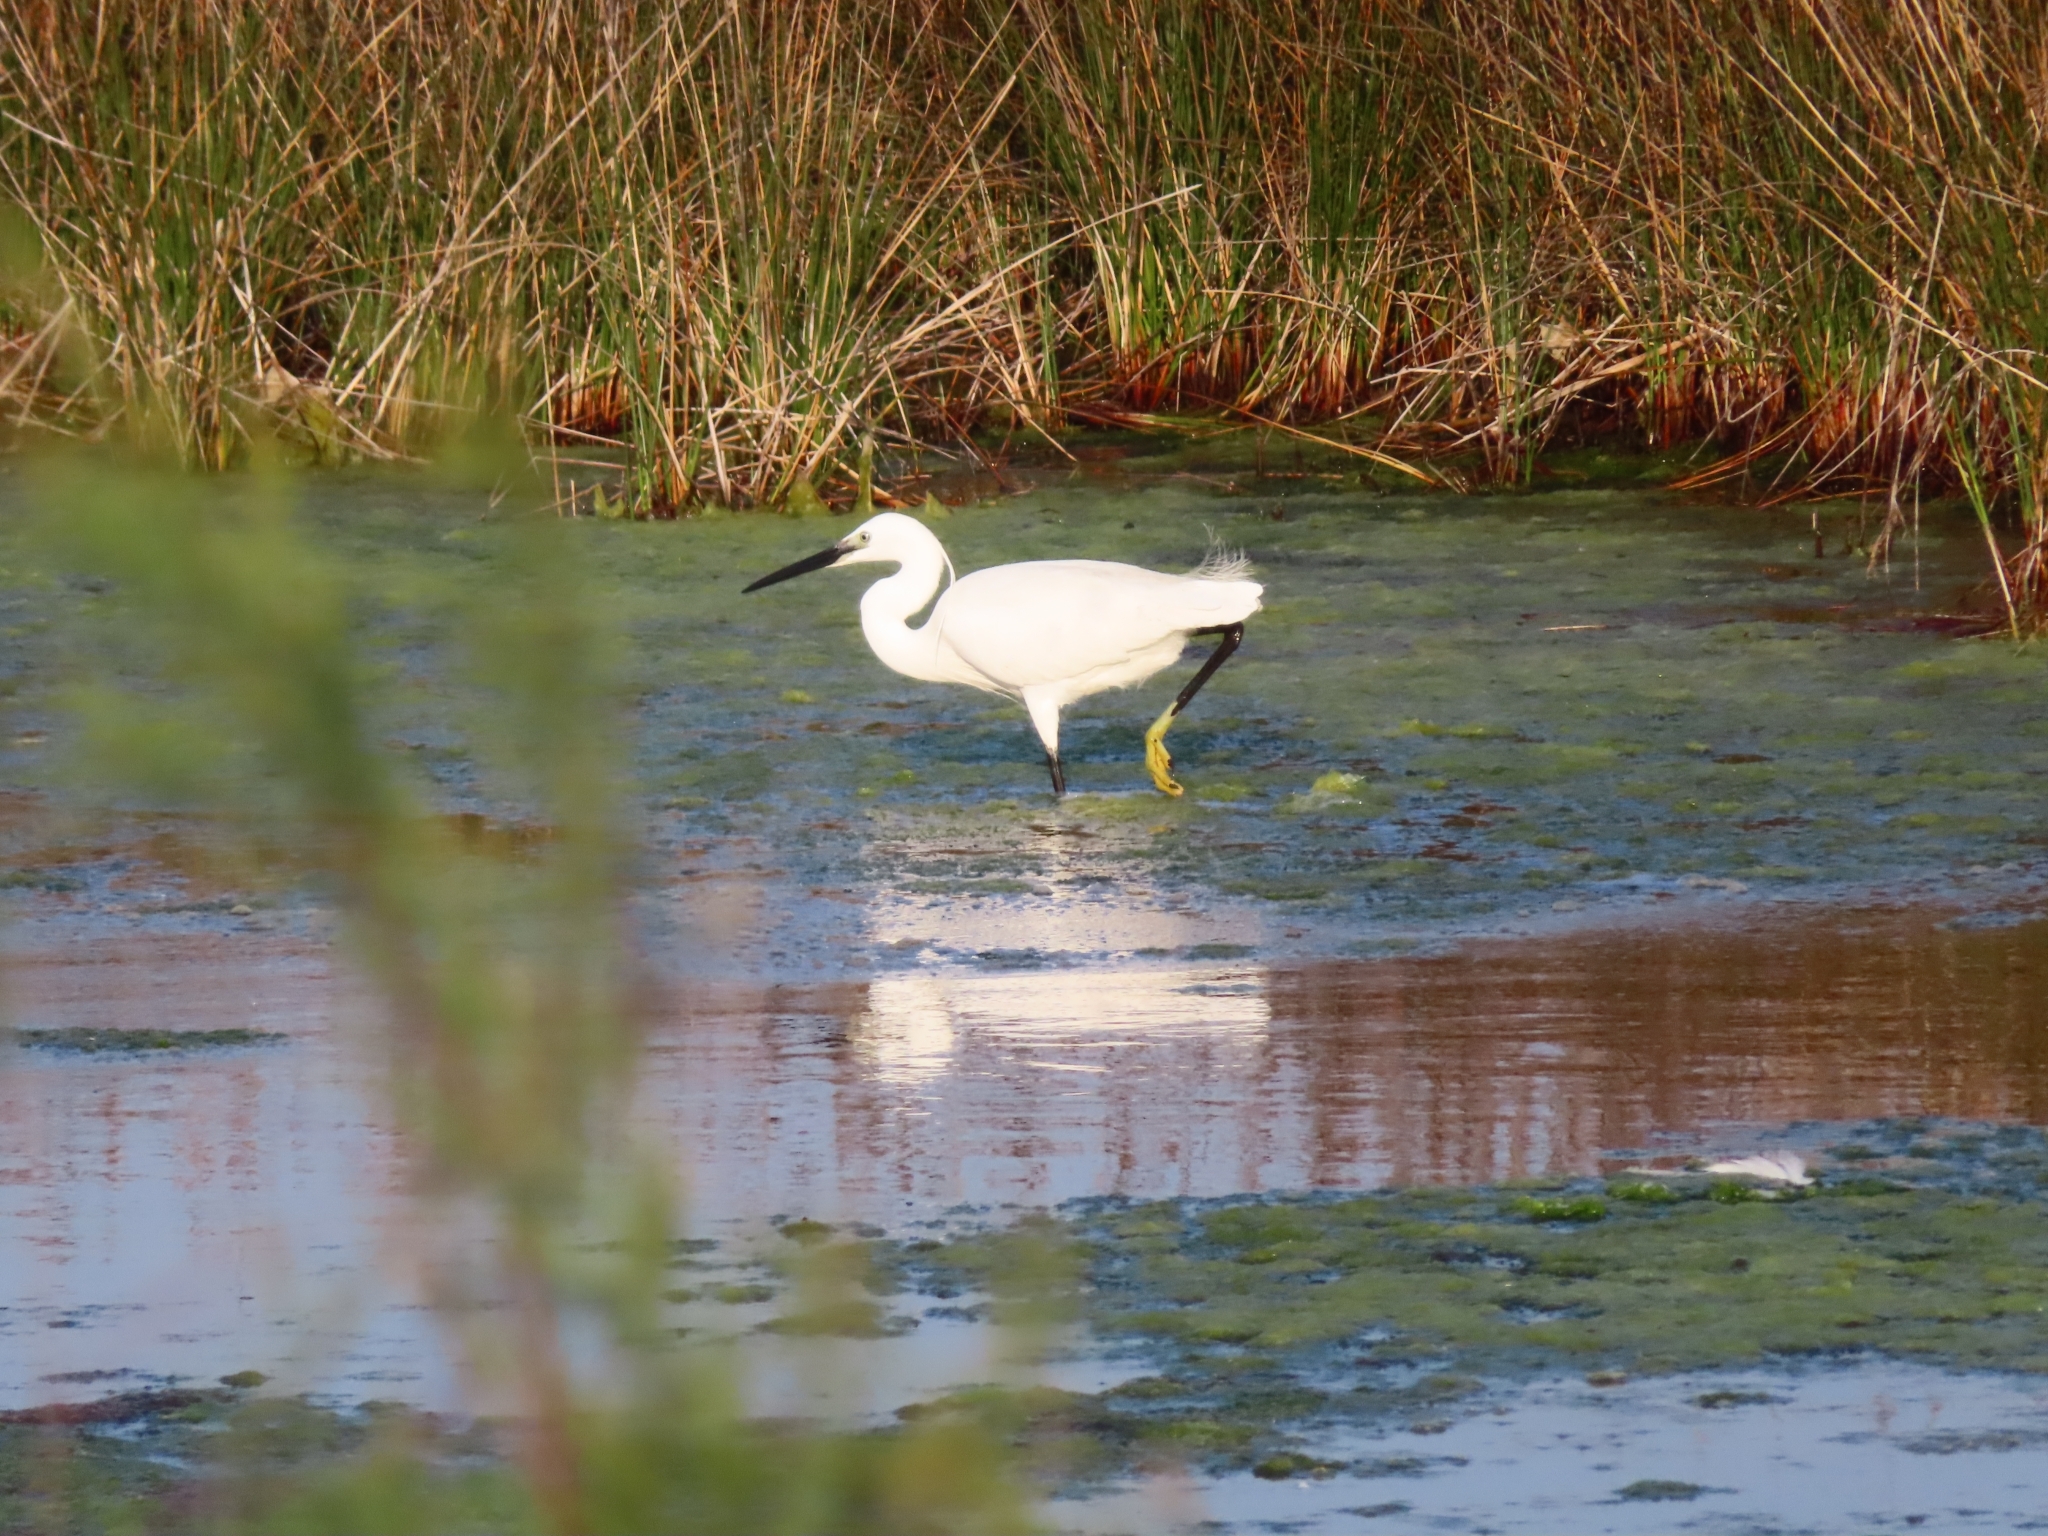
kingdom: Animalia
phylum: Chordata
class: Aves
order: Pelecaniformes
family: Ardeidae
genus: Egretta
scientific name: Egretta garzetta
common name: Little egret
